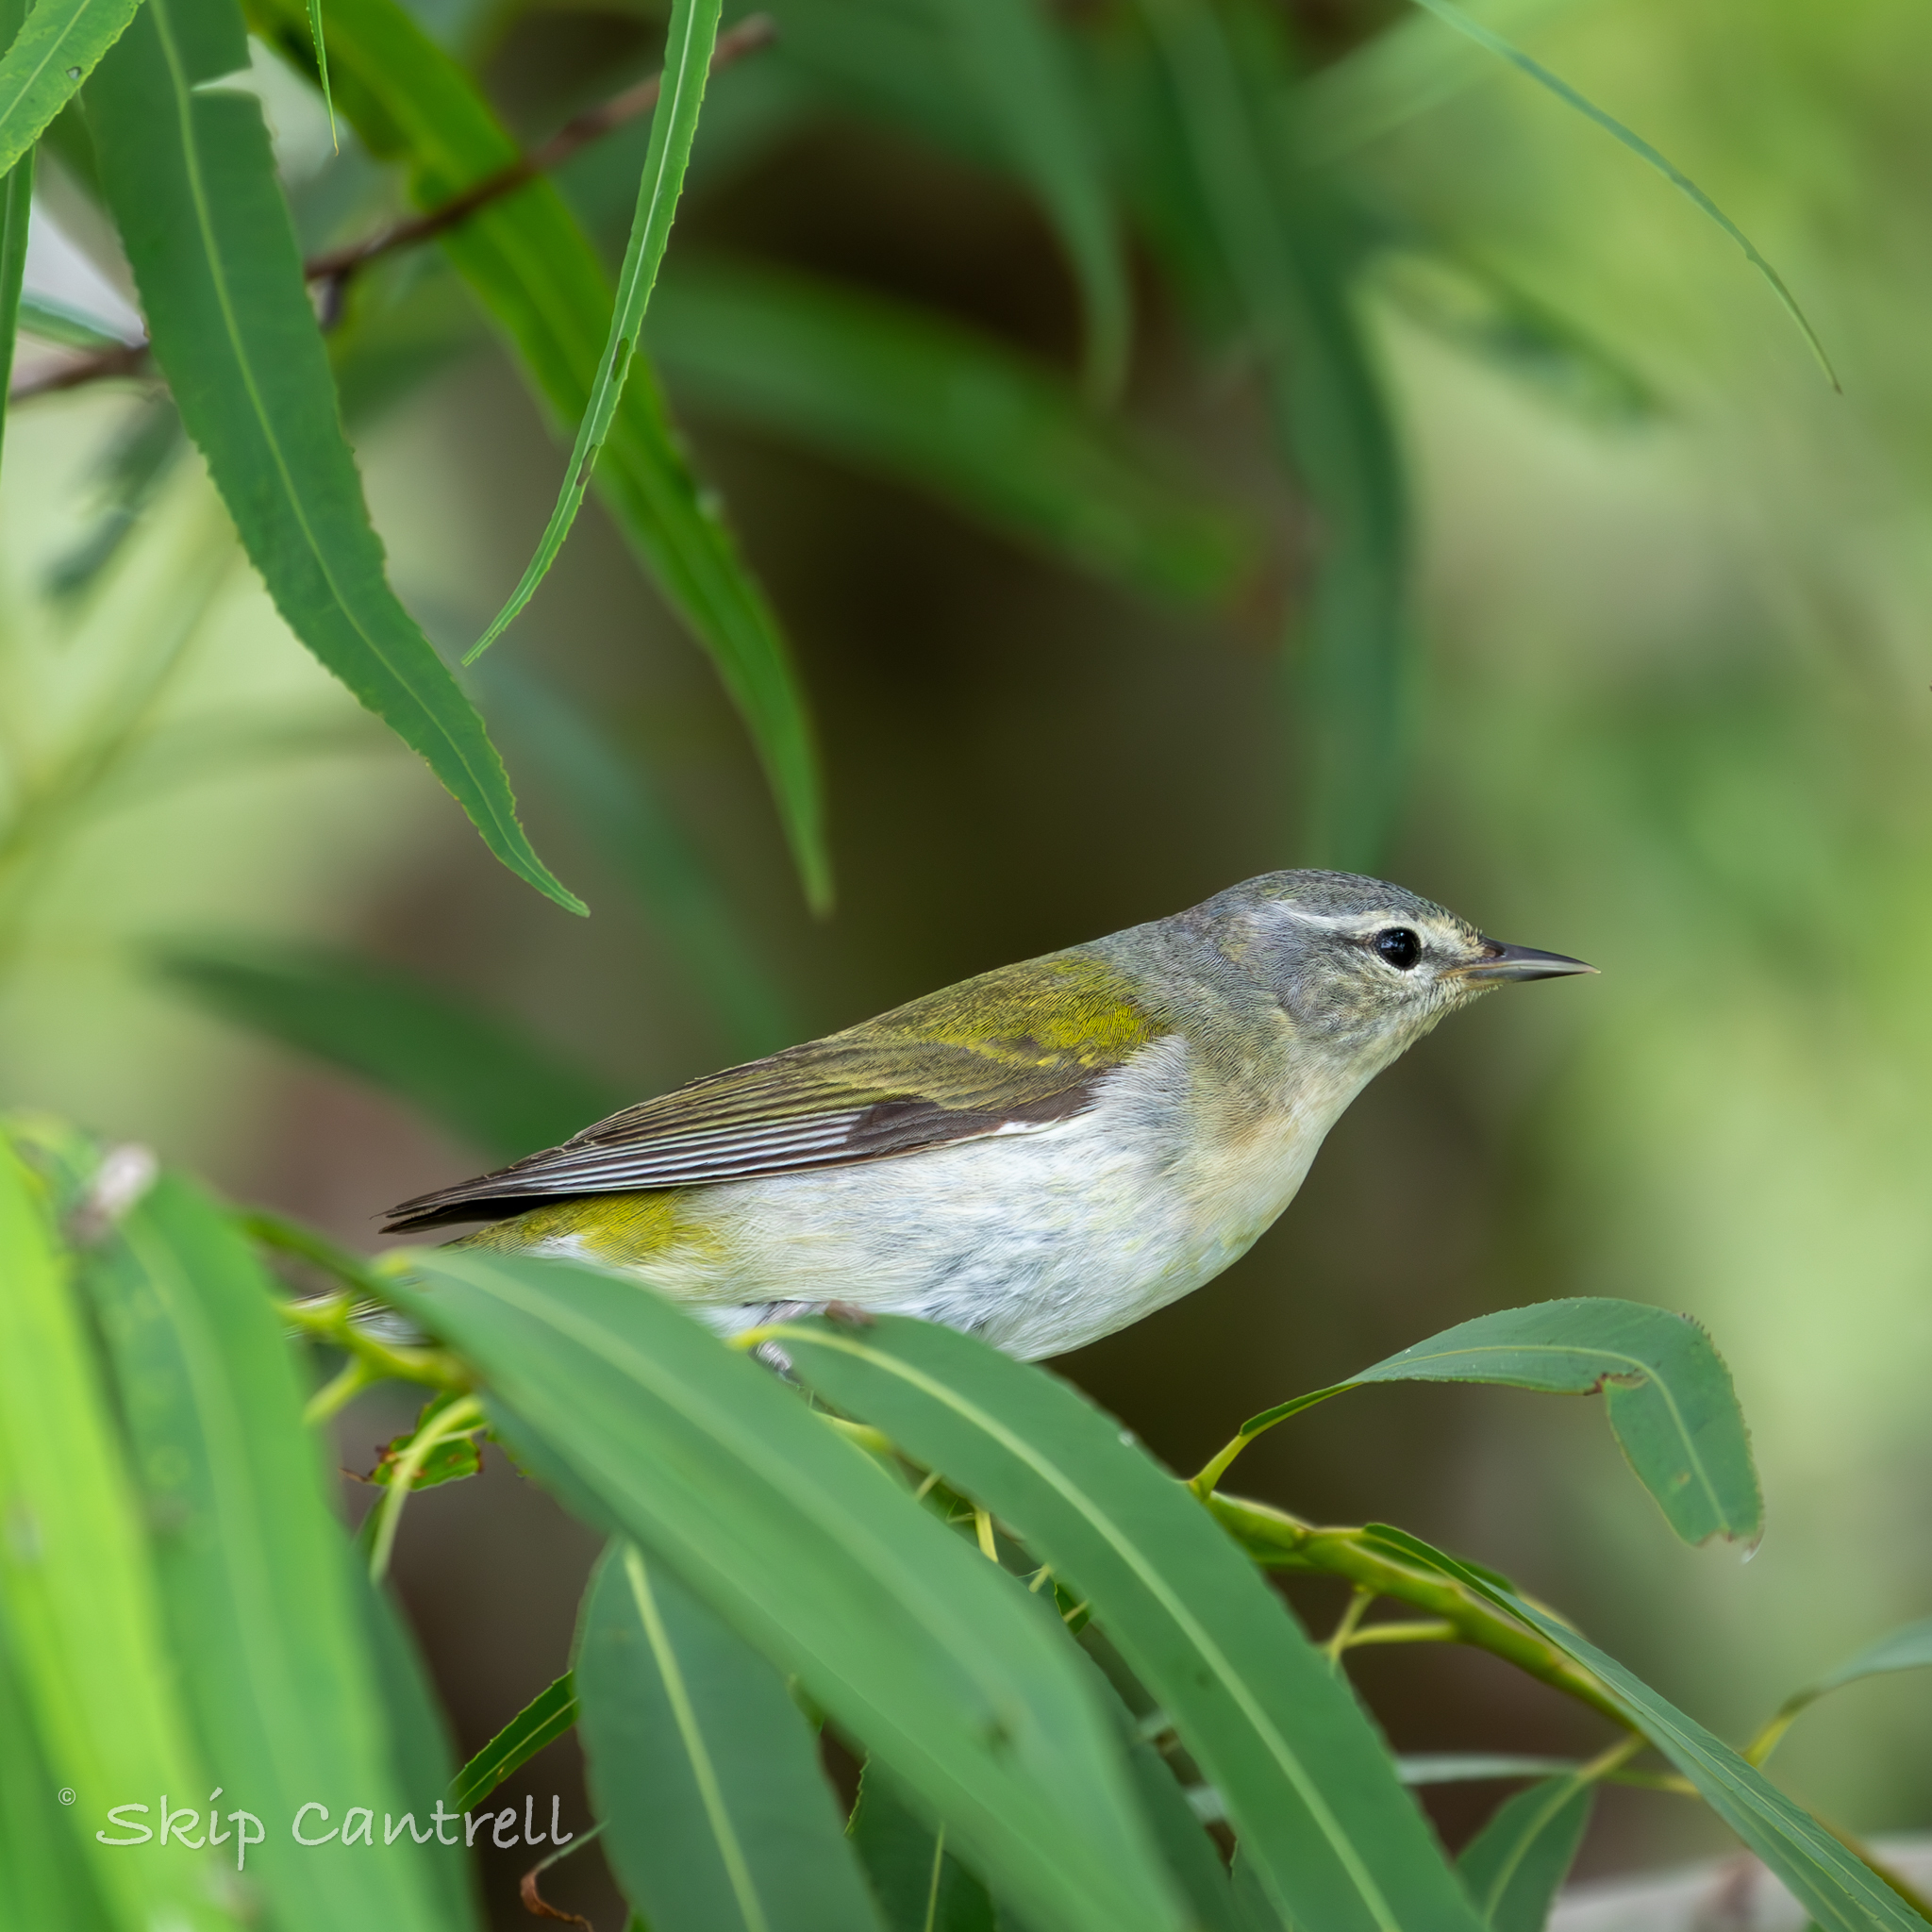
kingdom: Animalia
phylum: Chordata
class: Aves
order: Passeriformes
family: Parulidae
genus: Leiothlypis
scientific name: Leiothlypis peregrina
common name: Tennessee warbler
